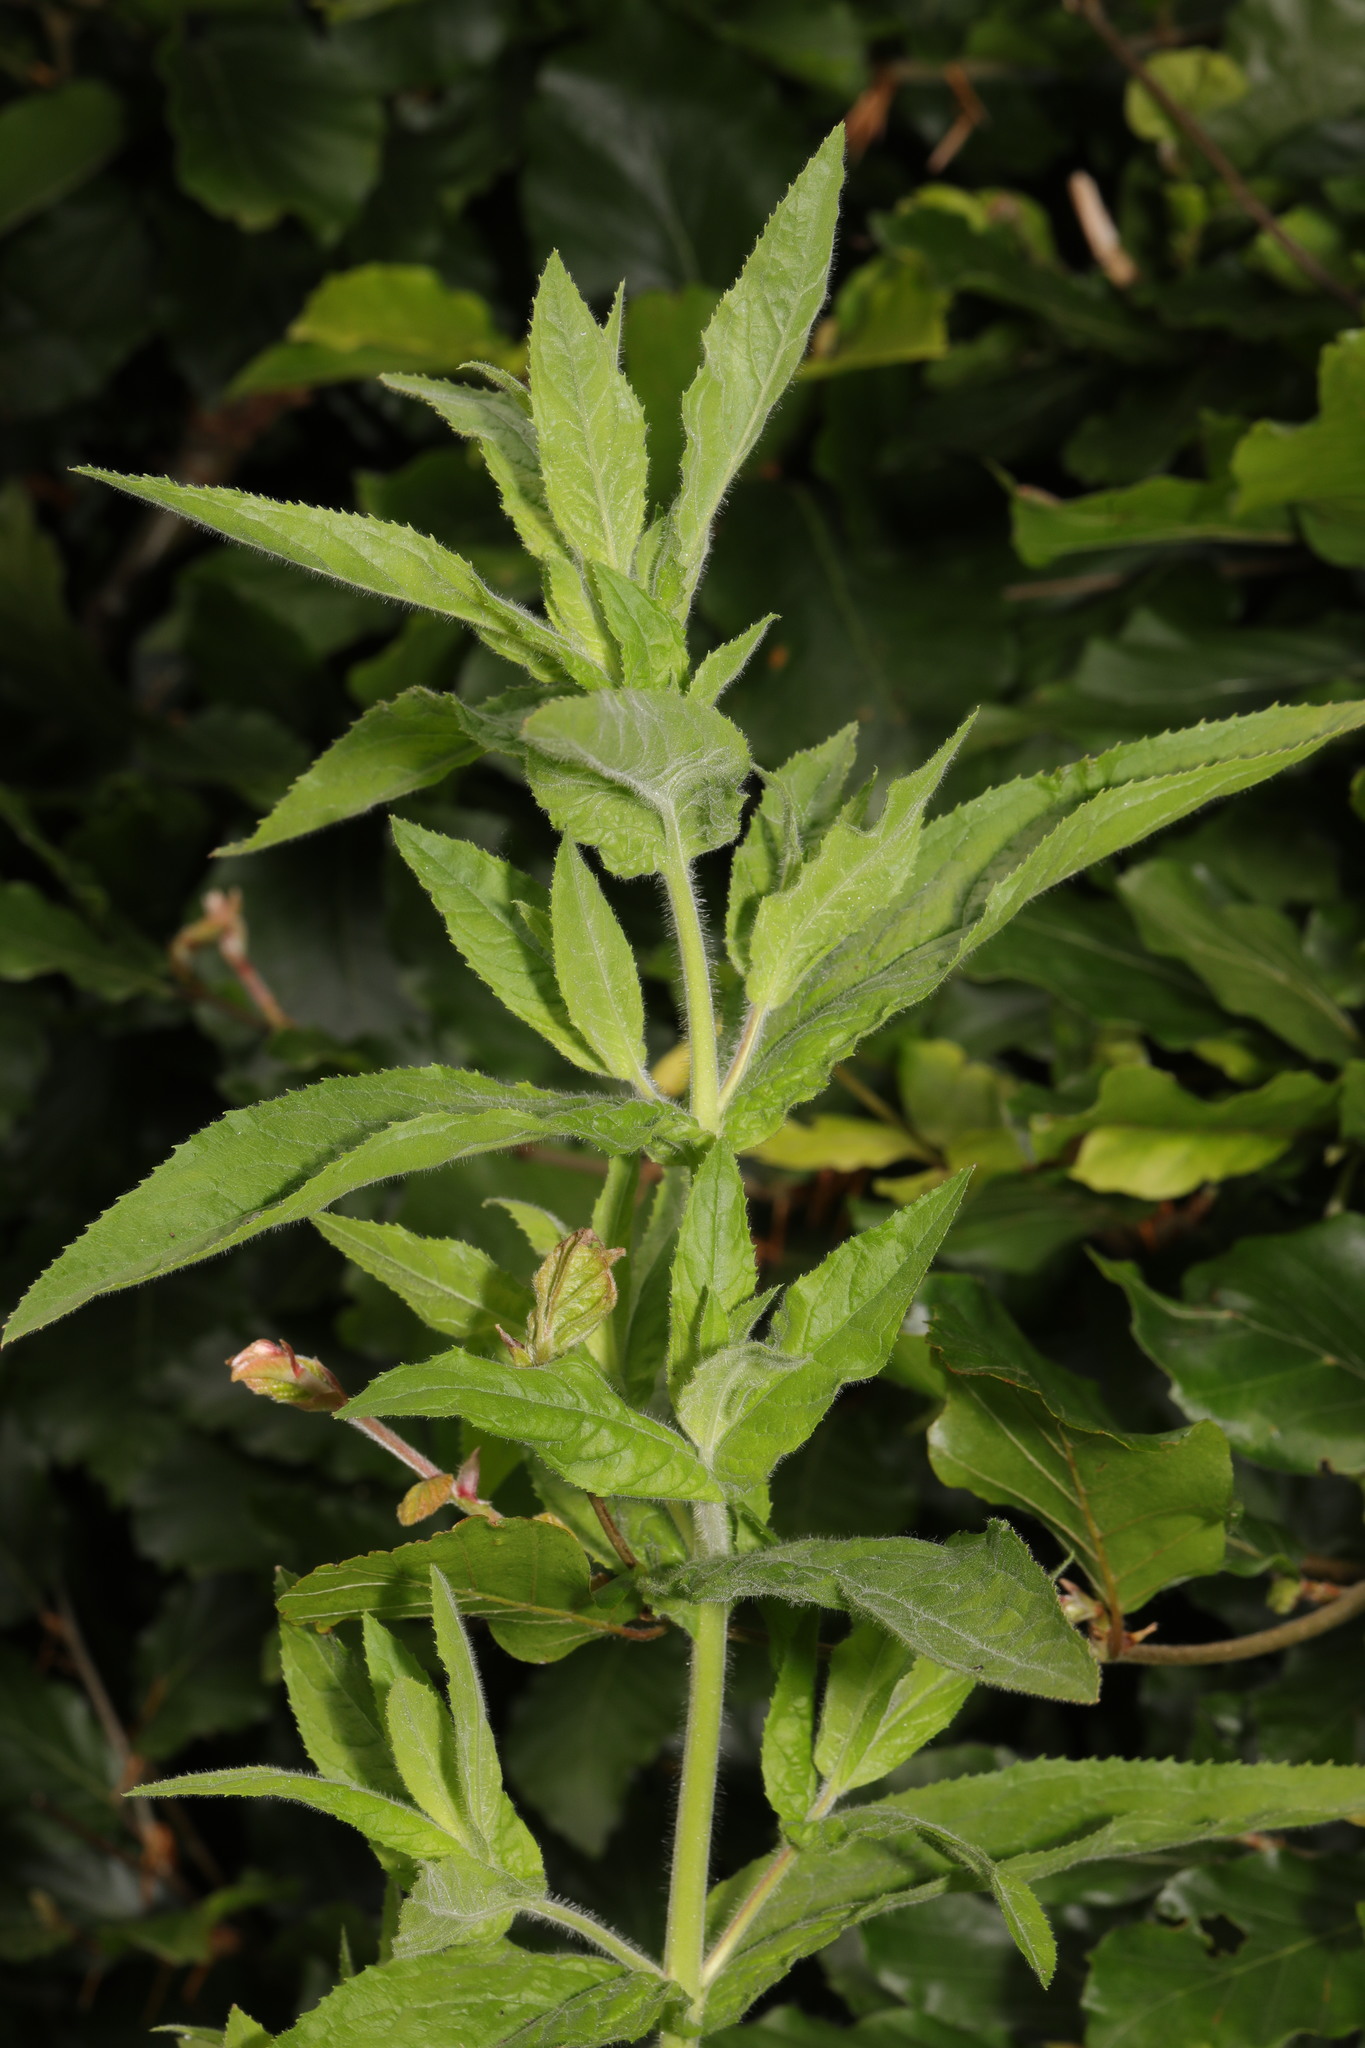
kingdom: Plantae
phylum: Tracheophyta
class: Magnoliopsida
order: Myrtales
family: Onagraceae
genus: Epilobium
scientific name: Epilobium hirsutum
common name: Great willowherb
